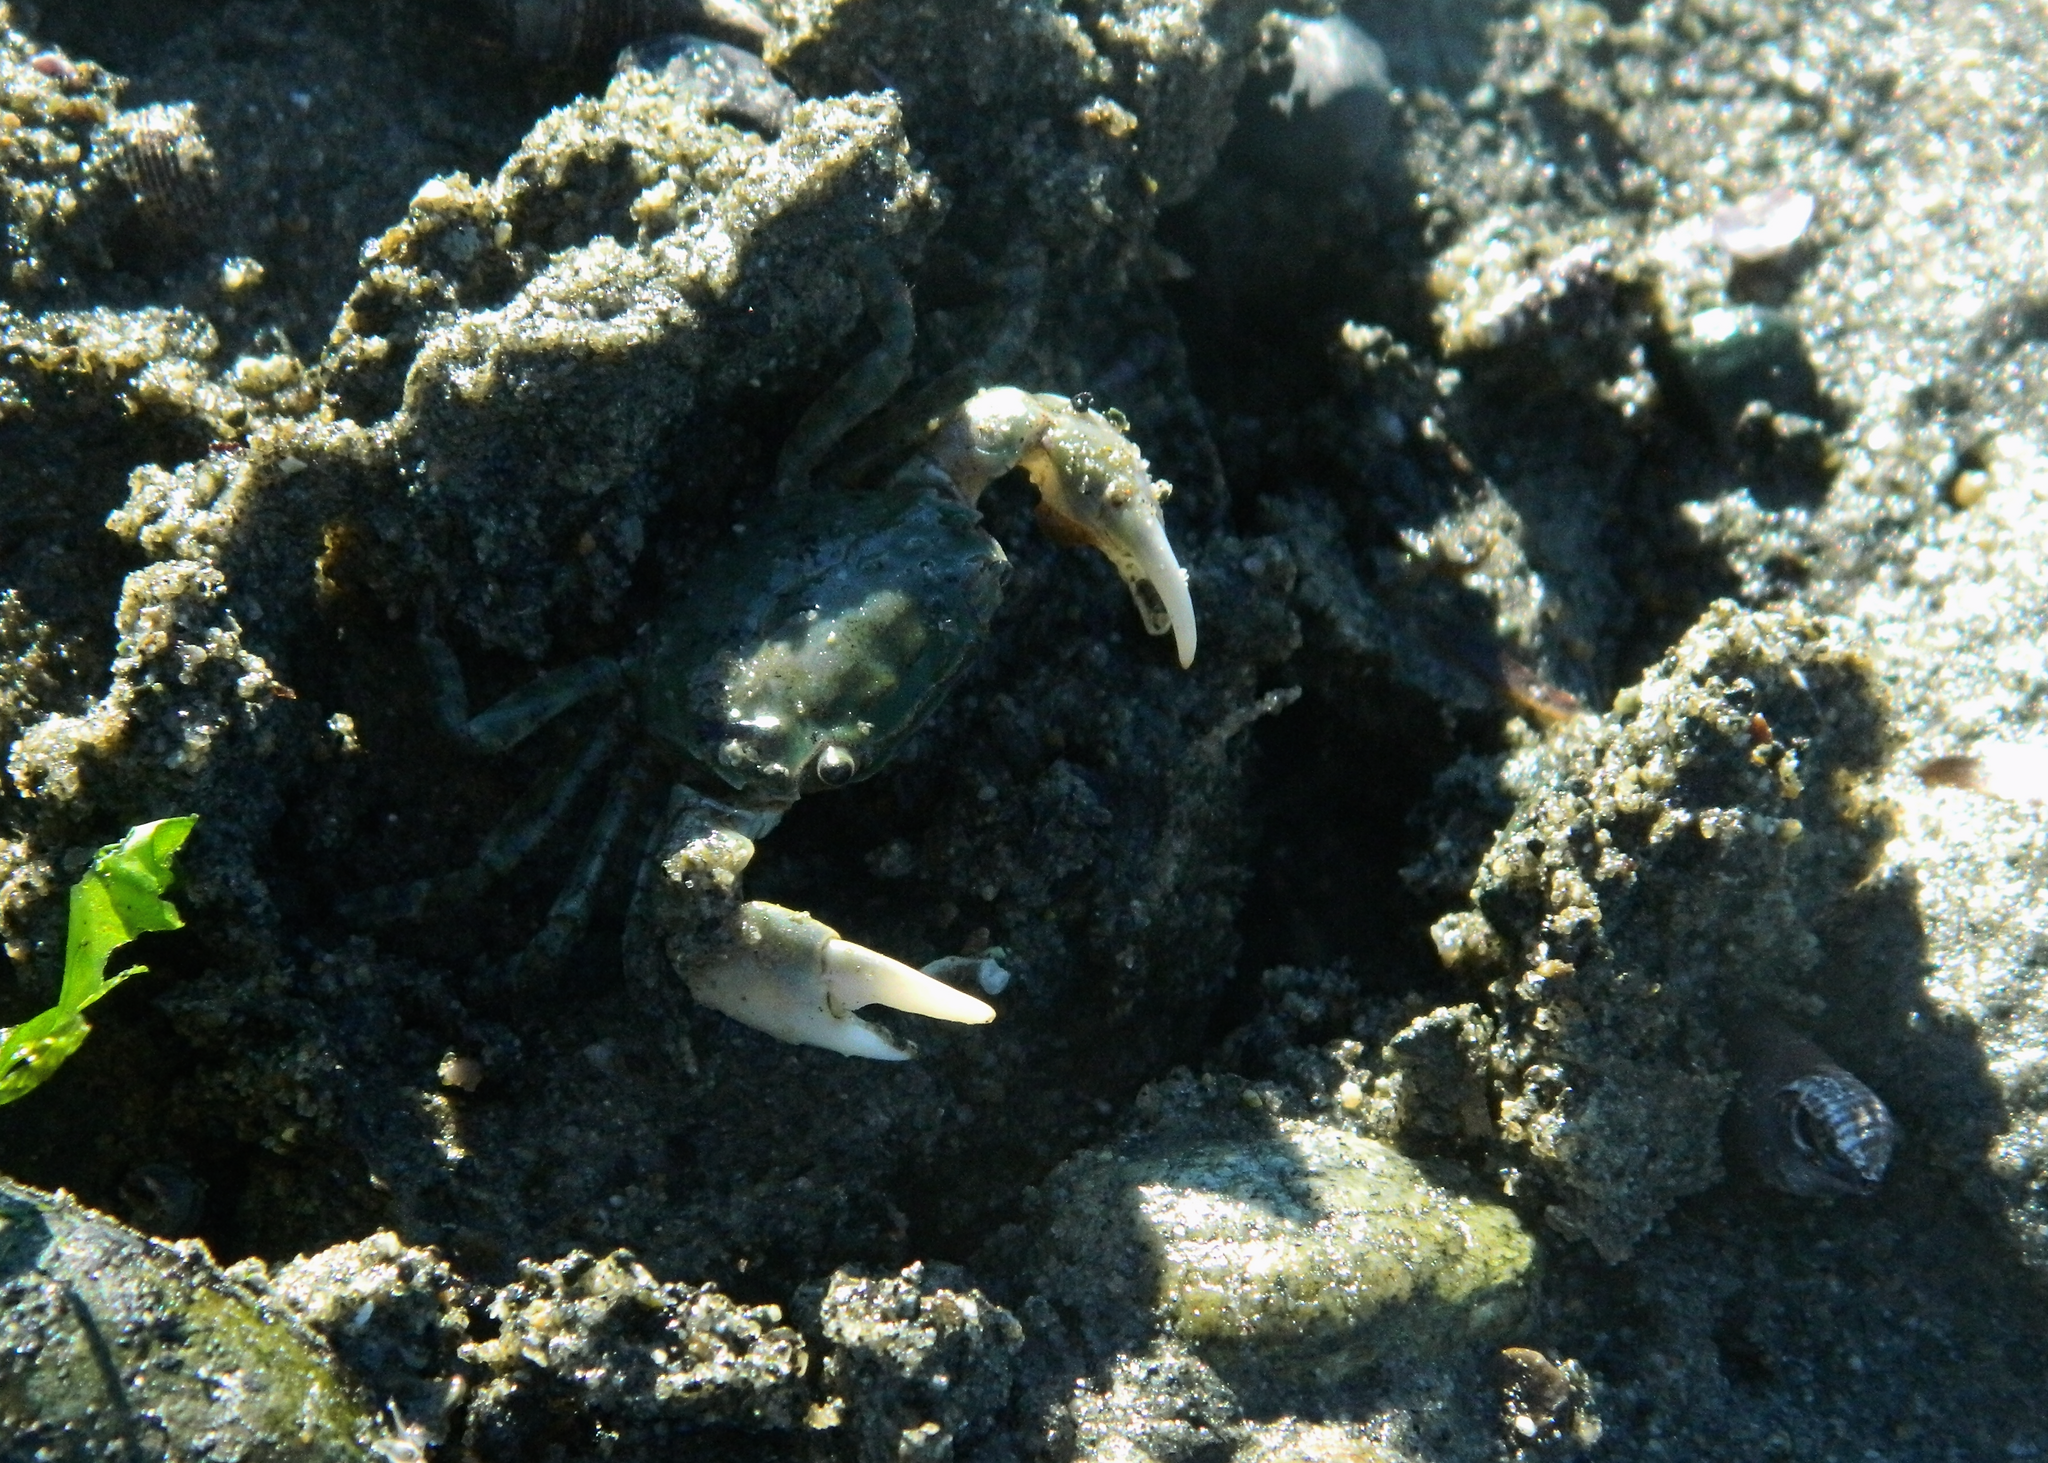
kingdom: Animalia
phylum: Arthropoda
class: Malacostraca
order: Decapoda
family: Varunidae
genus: Hemigrapsus
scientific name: Hemigrapsus oregonensis
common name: Yellow shore crab
